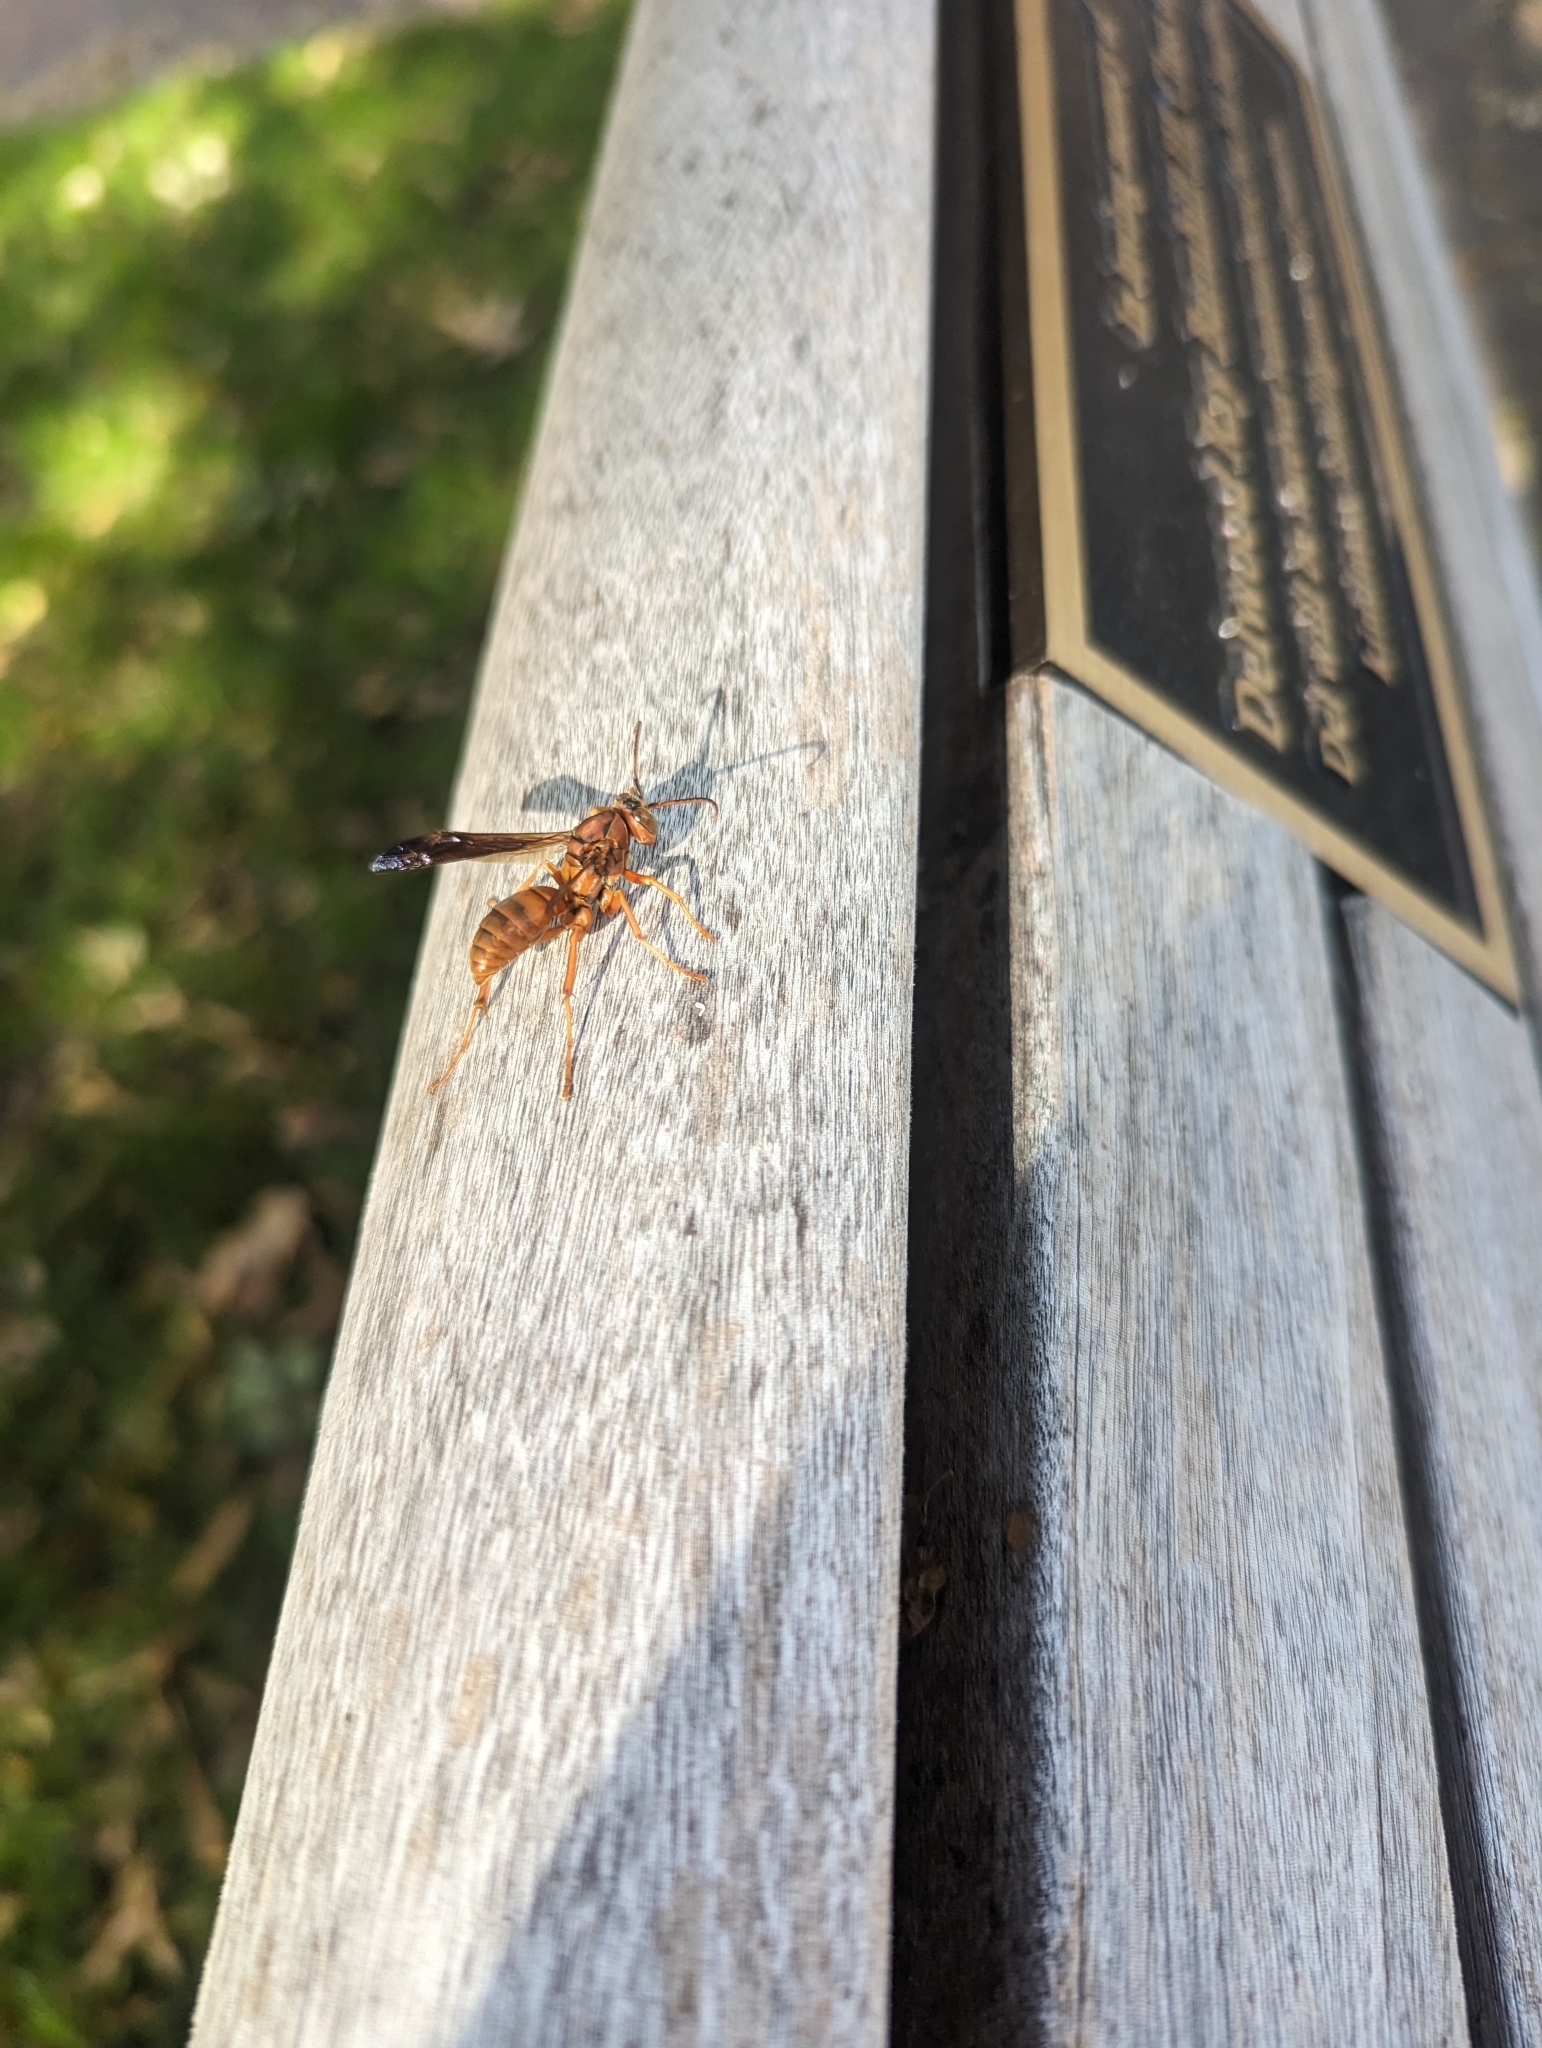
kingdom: Animalia
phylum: Arthropoda
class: Insecta
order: Hymenoptera
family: Eumenidae
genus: Polistes
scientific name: Polistes carolina
